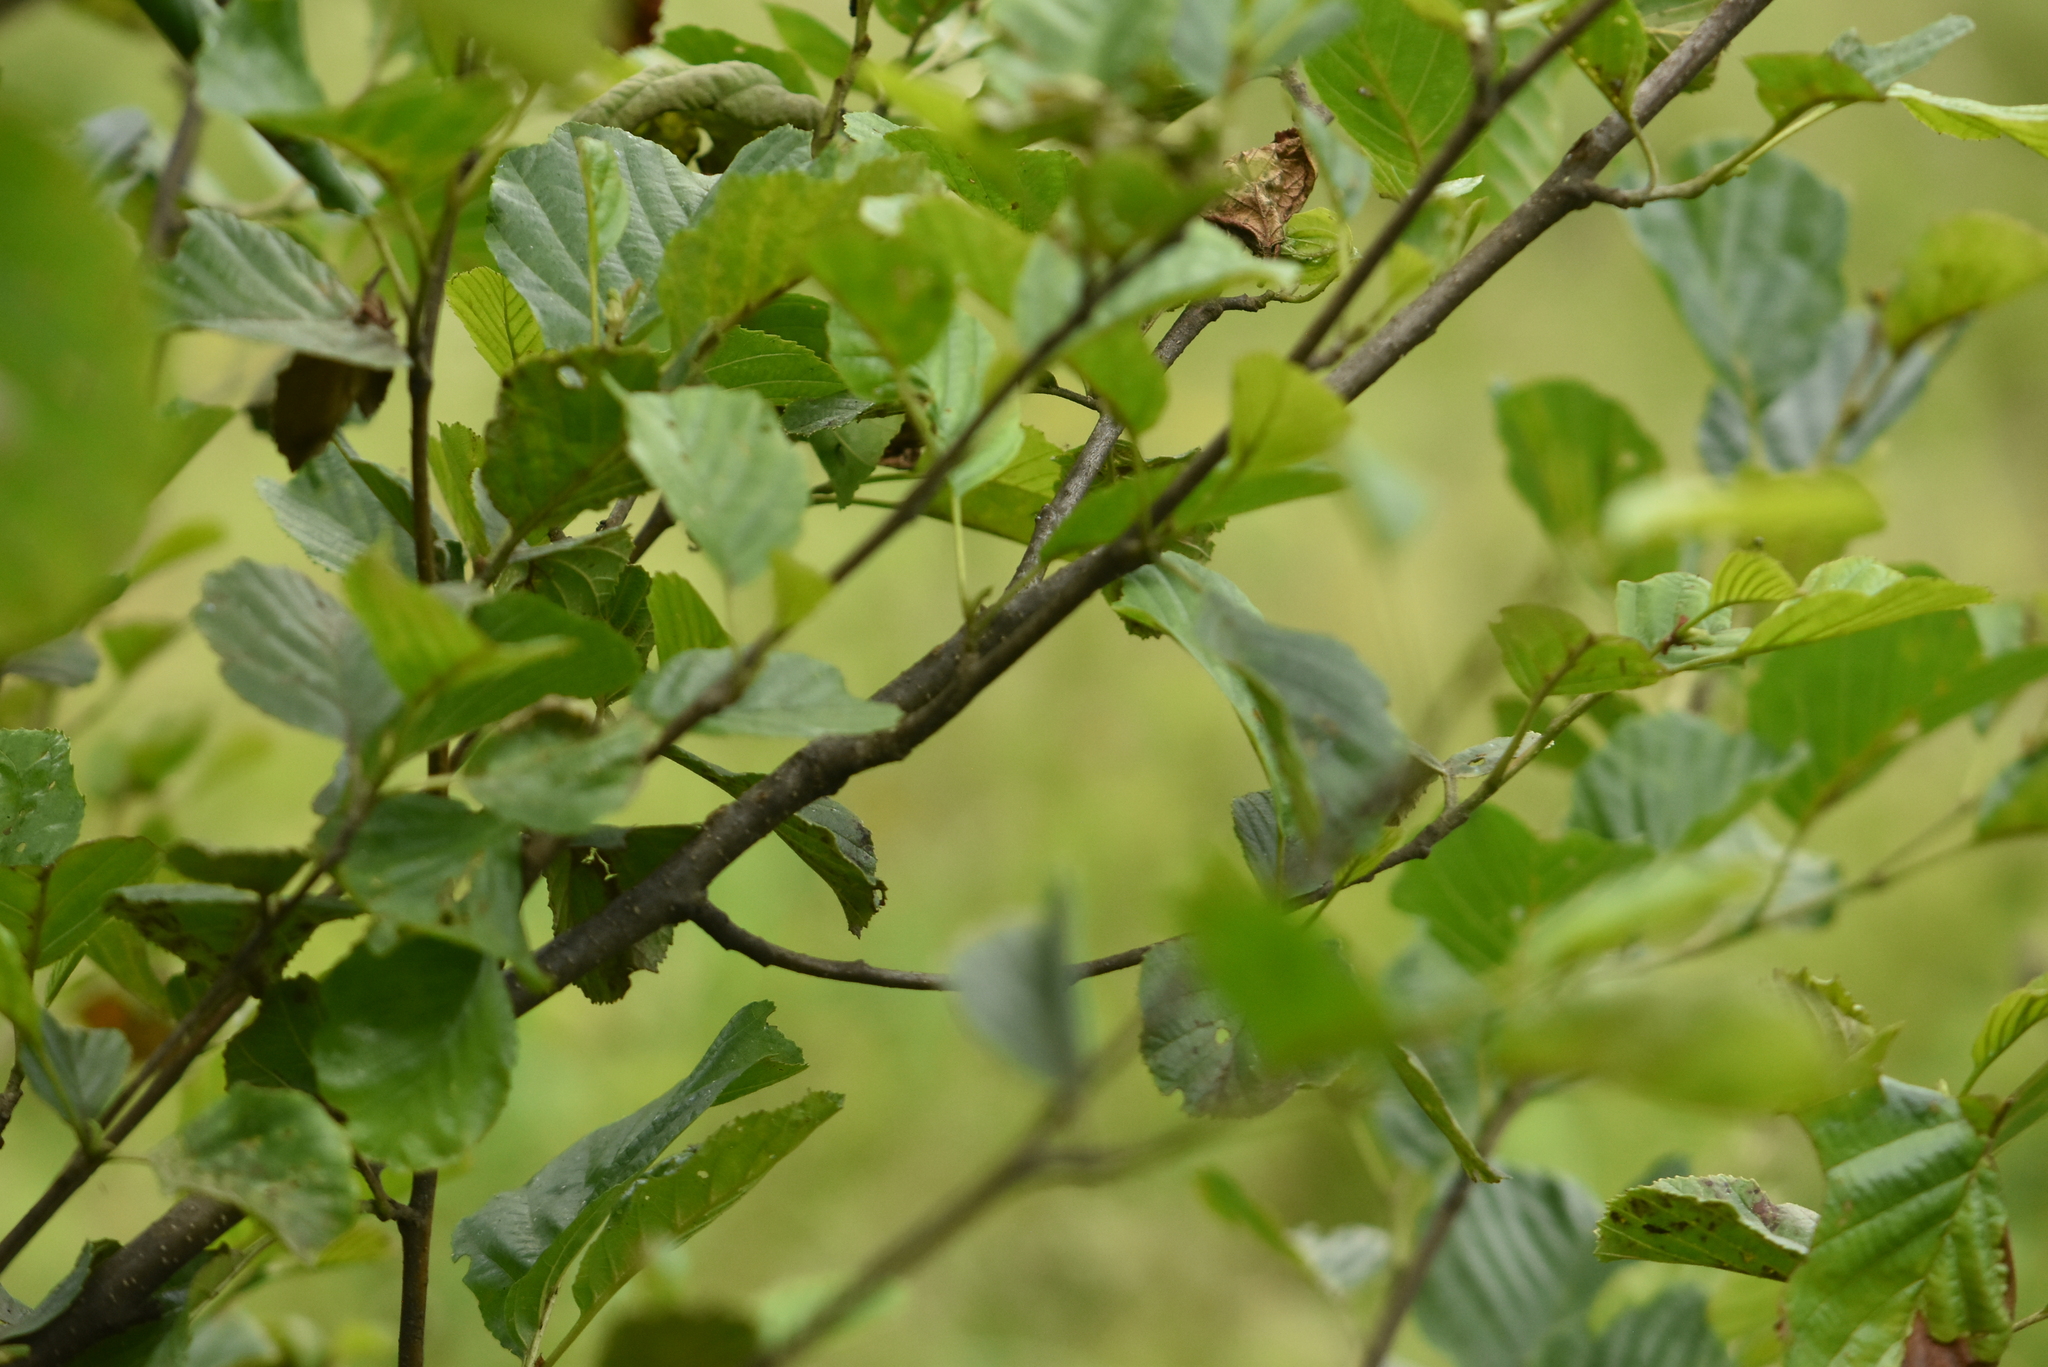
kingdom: Plantae
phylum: Tracheophyta
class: Magnoliopsida
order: Fagales
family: Betulaceae
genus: Alnus
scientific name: Alnus glutinosa
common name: Black alder
